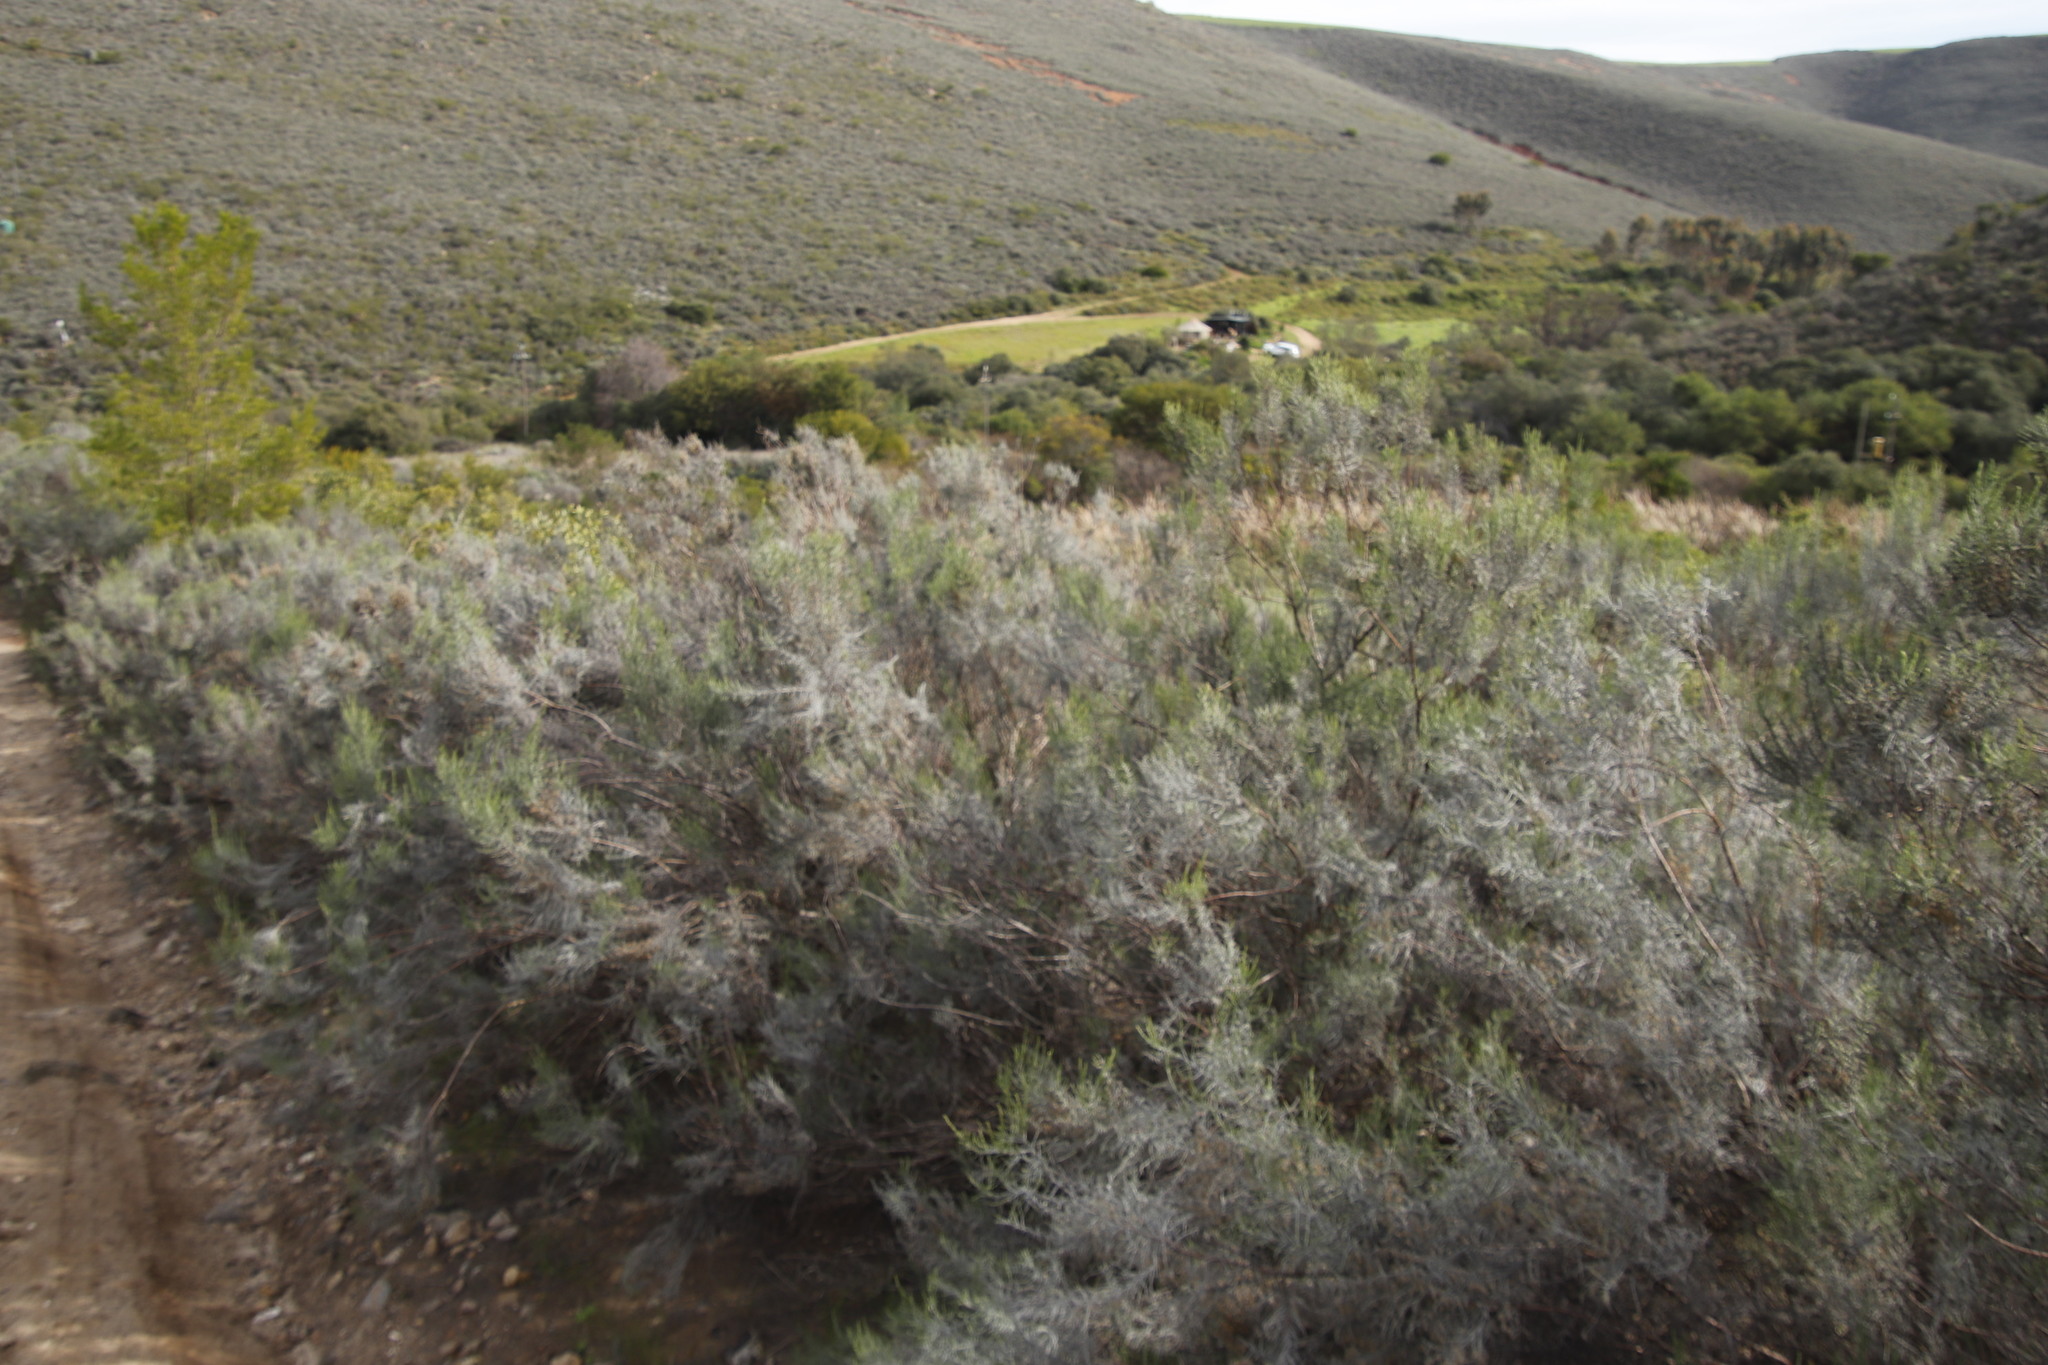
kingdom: Plantae
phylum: Tracheophyta
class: Magnoliopsida
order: Asterales
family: Asteraceae
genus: Dicerothamnus
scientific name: Dicerothamnus rhinocerotis
